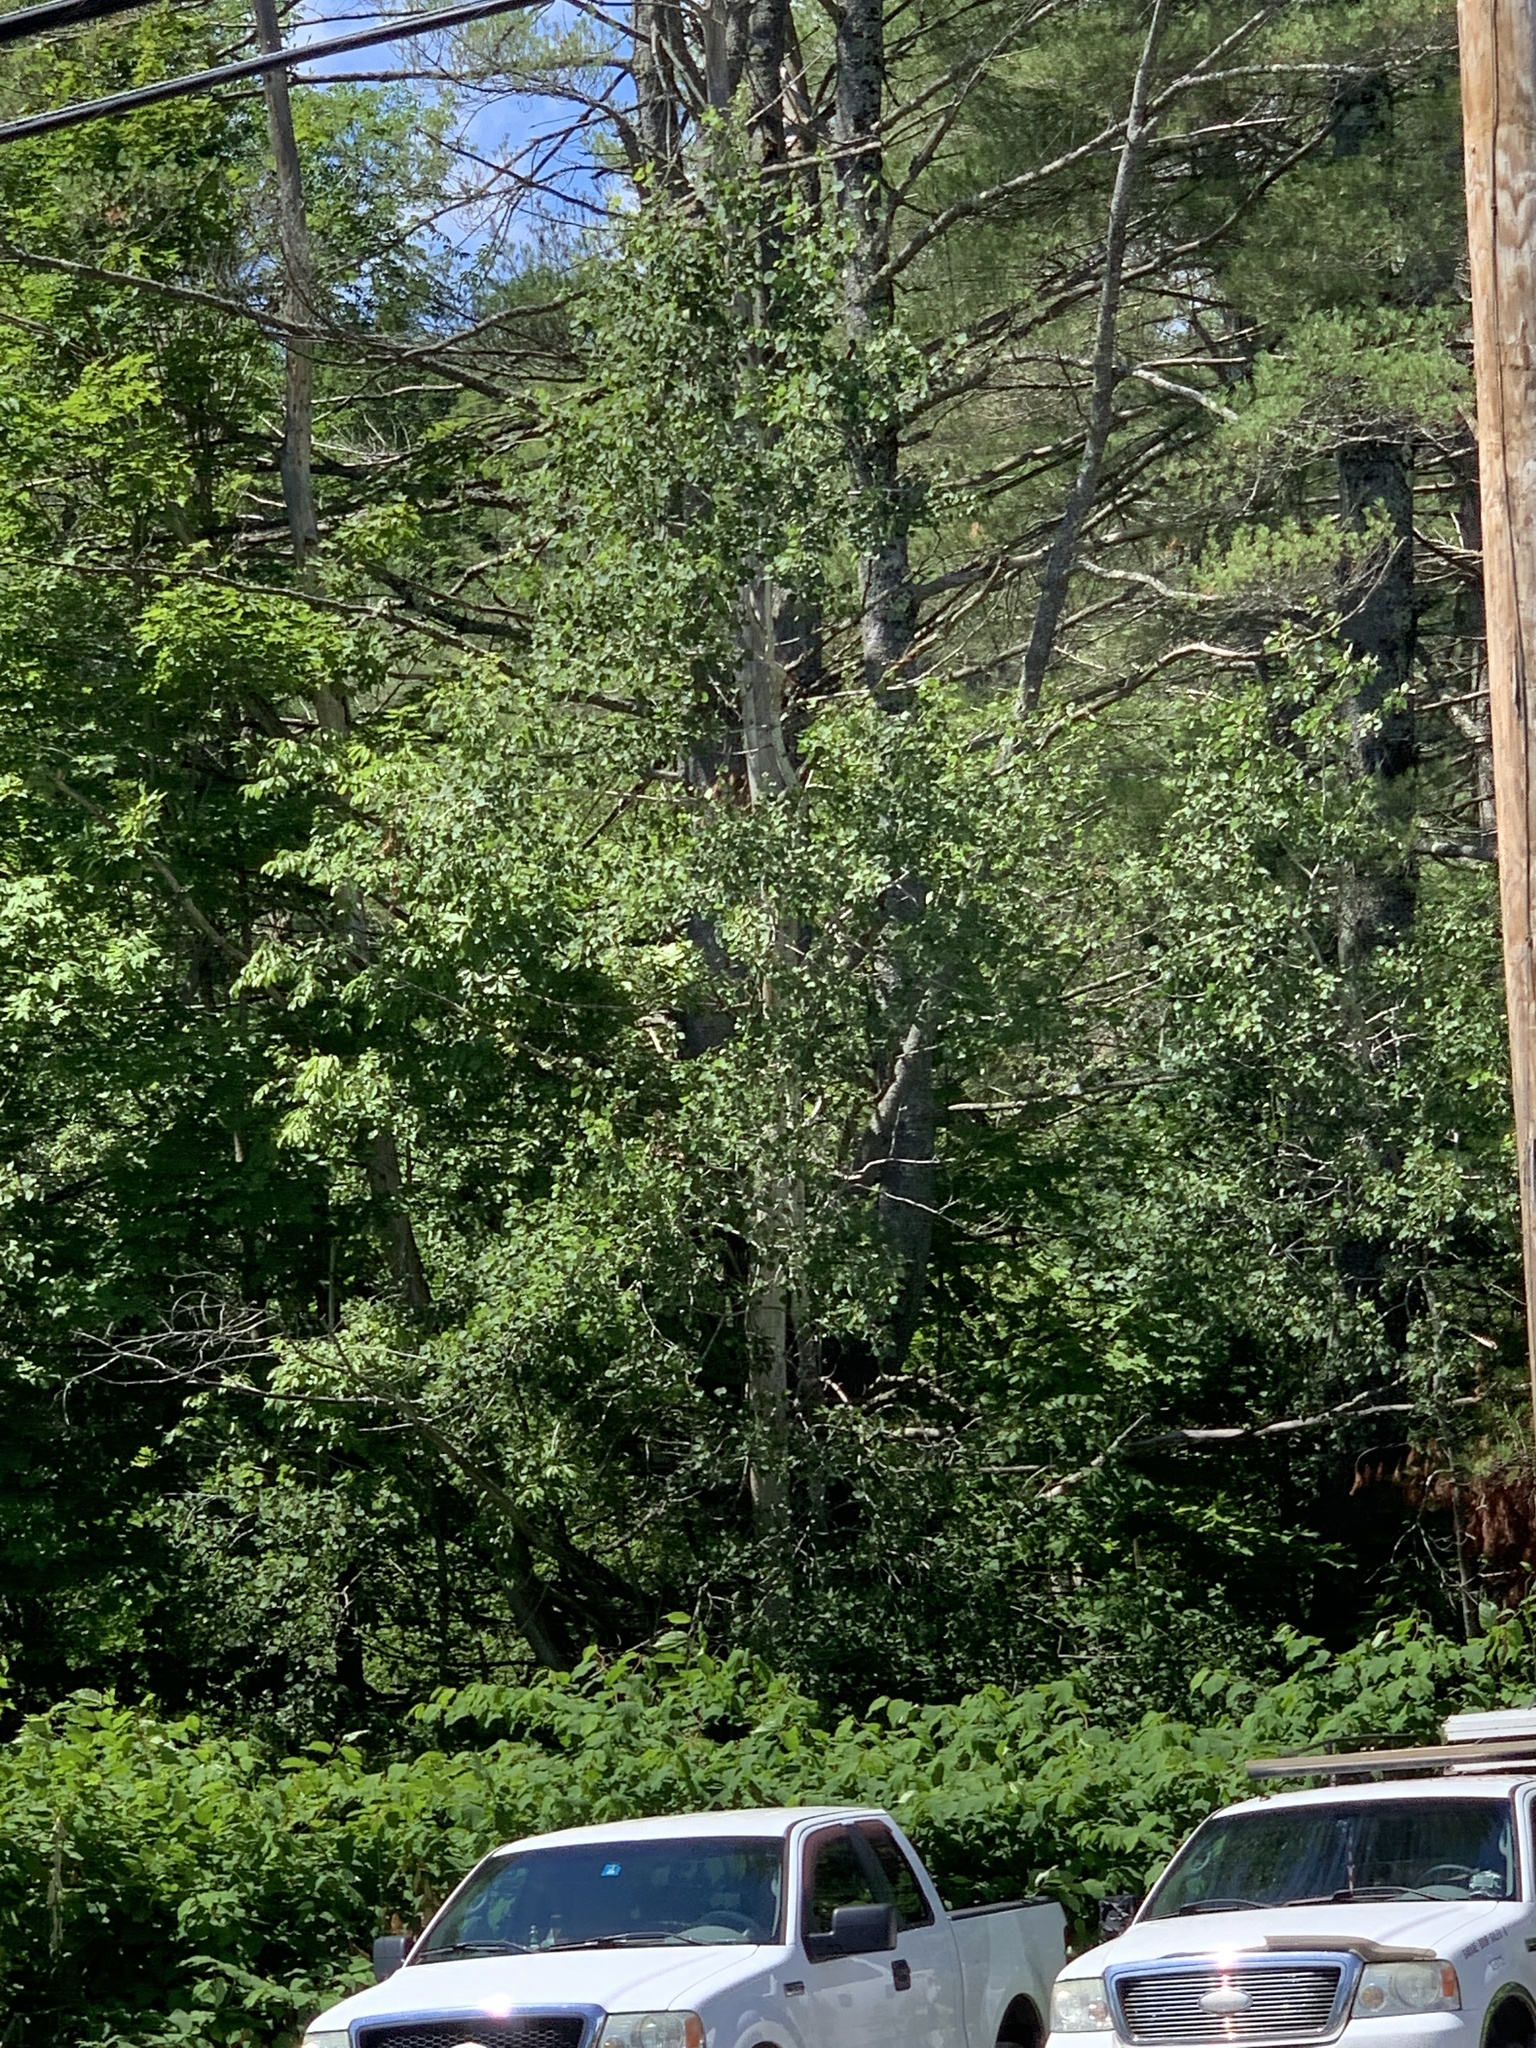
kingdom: Plantae
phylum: Tracheophyta
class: Magnoliopsida
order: Malpighiales
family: Salicaceae
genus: Populus
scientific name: Populus tremuloides
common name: Quaking aspen
